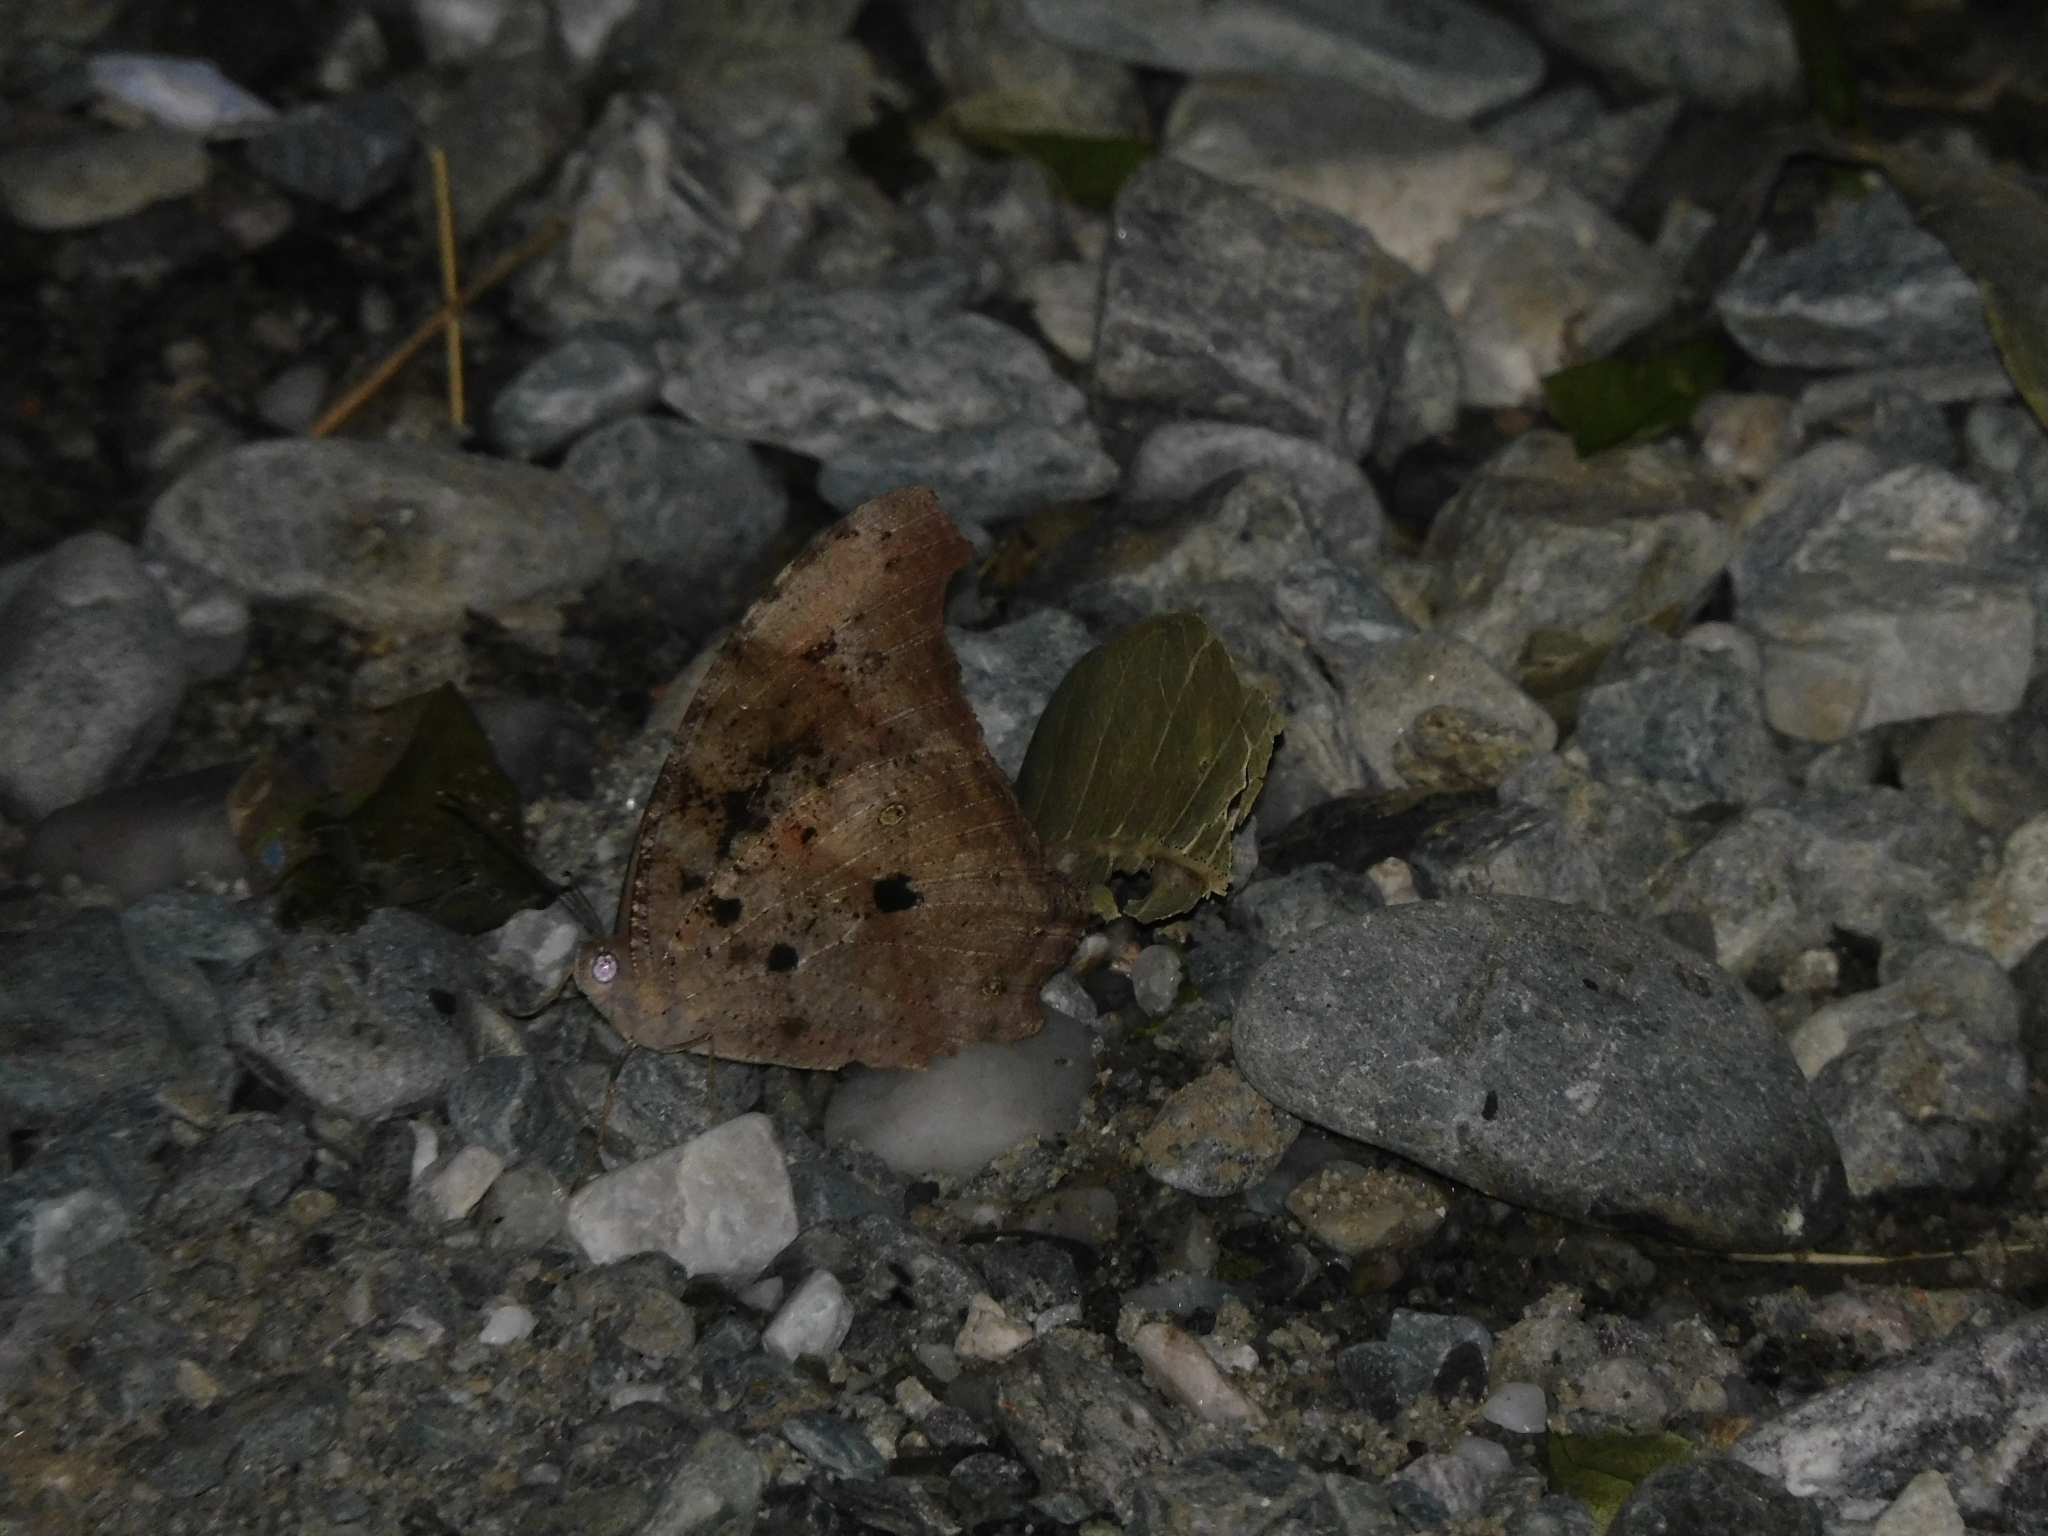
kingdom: Animalia
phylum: Arthropoda
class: Insecta
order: Lepidoptera
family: Nymphalidae
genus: Melanitis
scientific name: Melanitis leda
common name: Twilight brown
